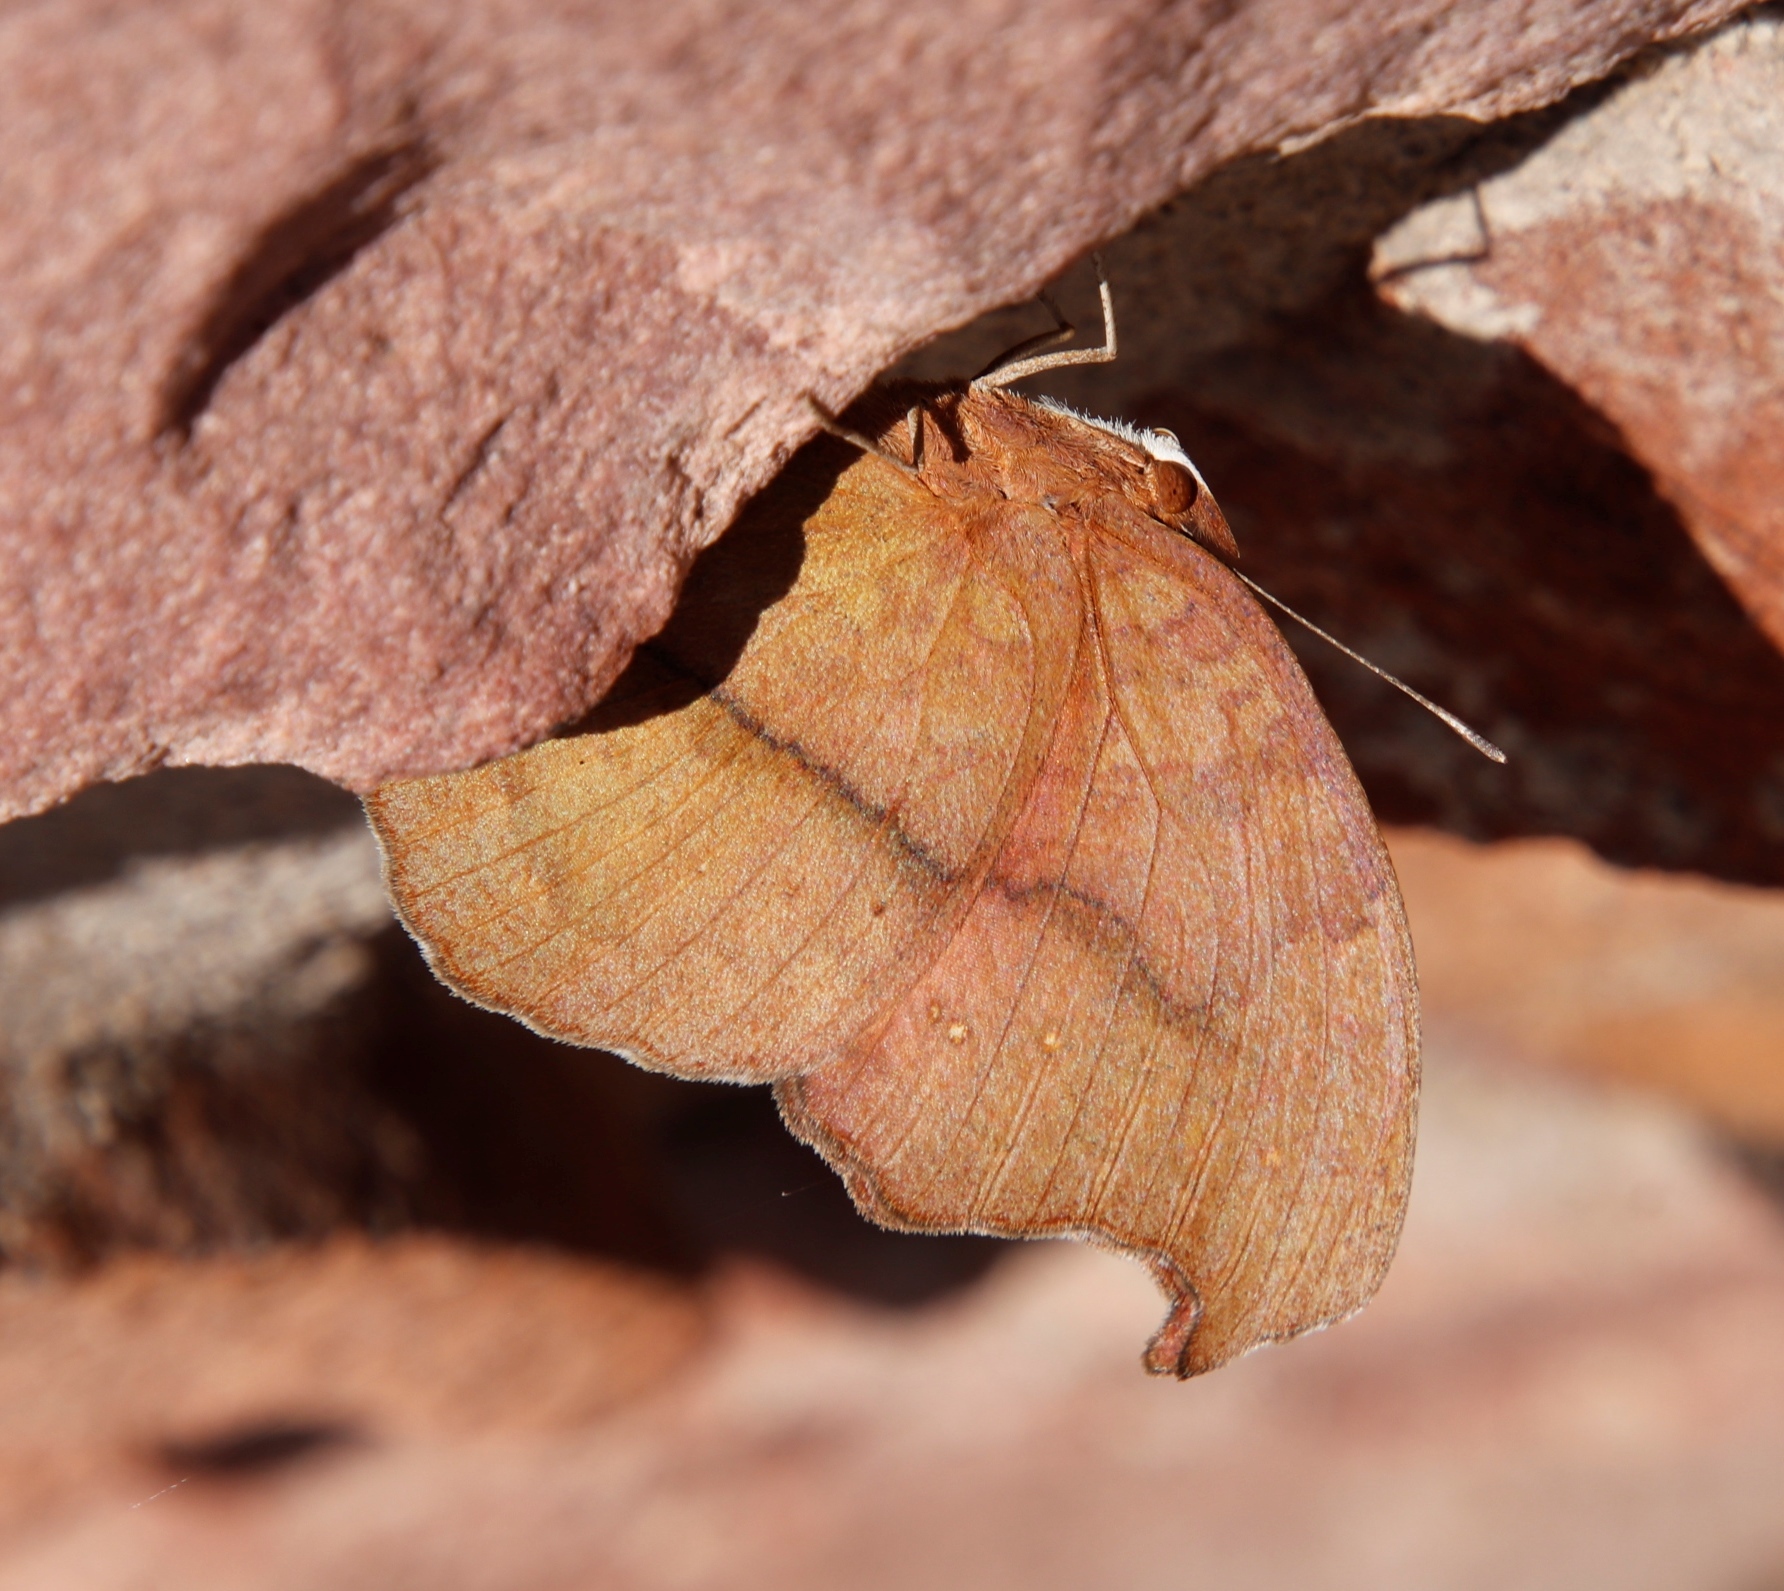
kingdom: Animalia
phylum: Arthropoda
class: Insecta
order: Lepidoptera
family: Nymphalidae
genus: Junonia
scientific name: Junonia antilope
